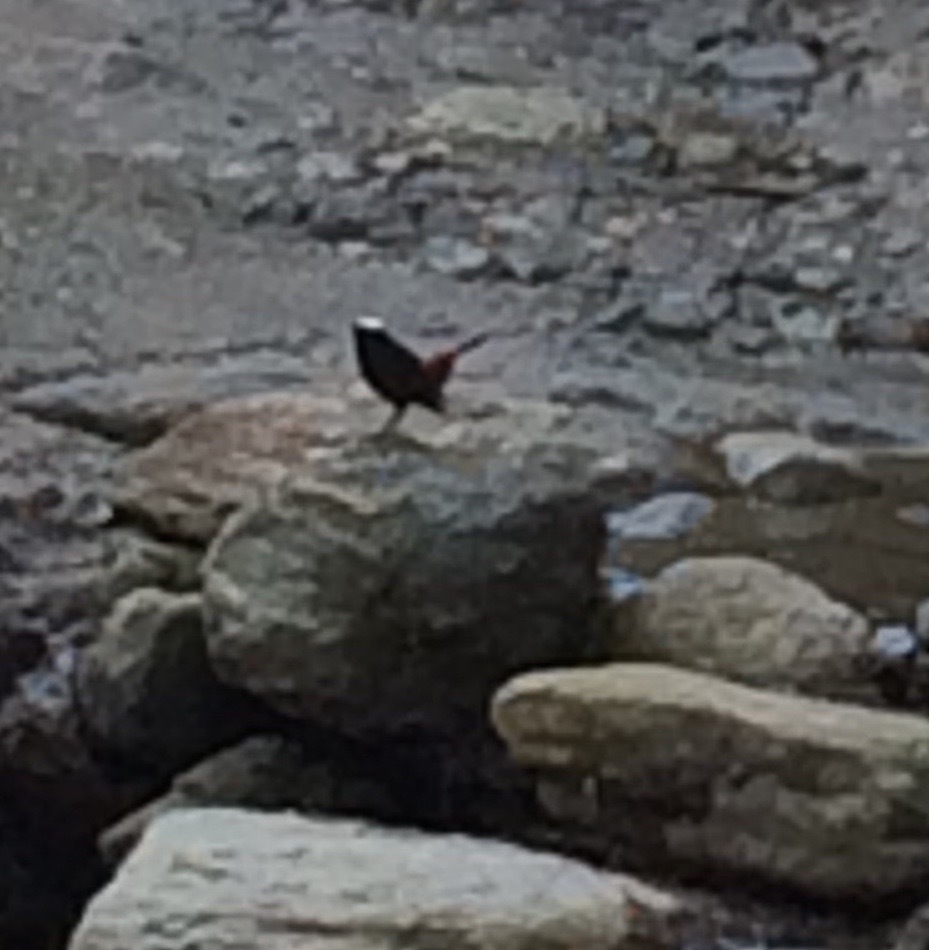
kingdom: Animalia
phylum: Chordata
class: Aves
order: Passeriformes
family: Muscicapidae
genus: Chaimarrornis
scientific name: Chaimarrornis leucocephalus
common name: White-capped redstart
